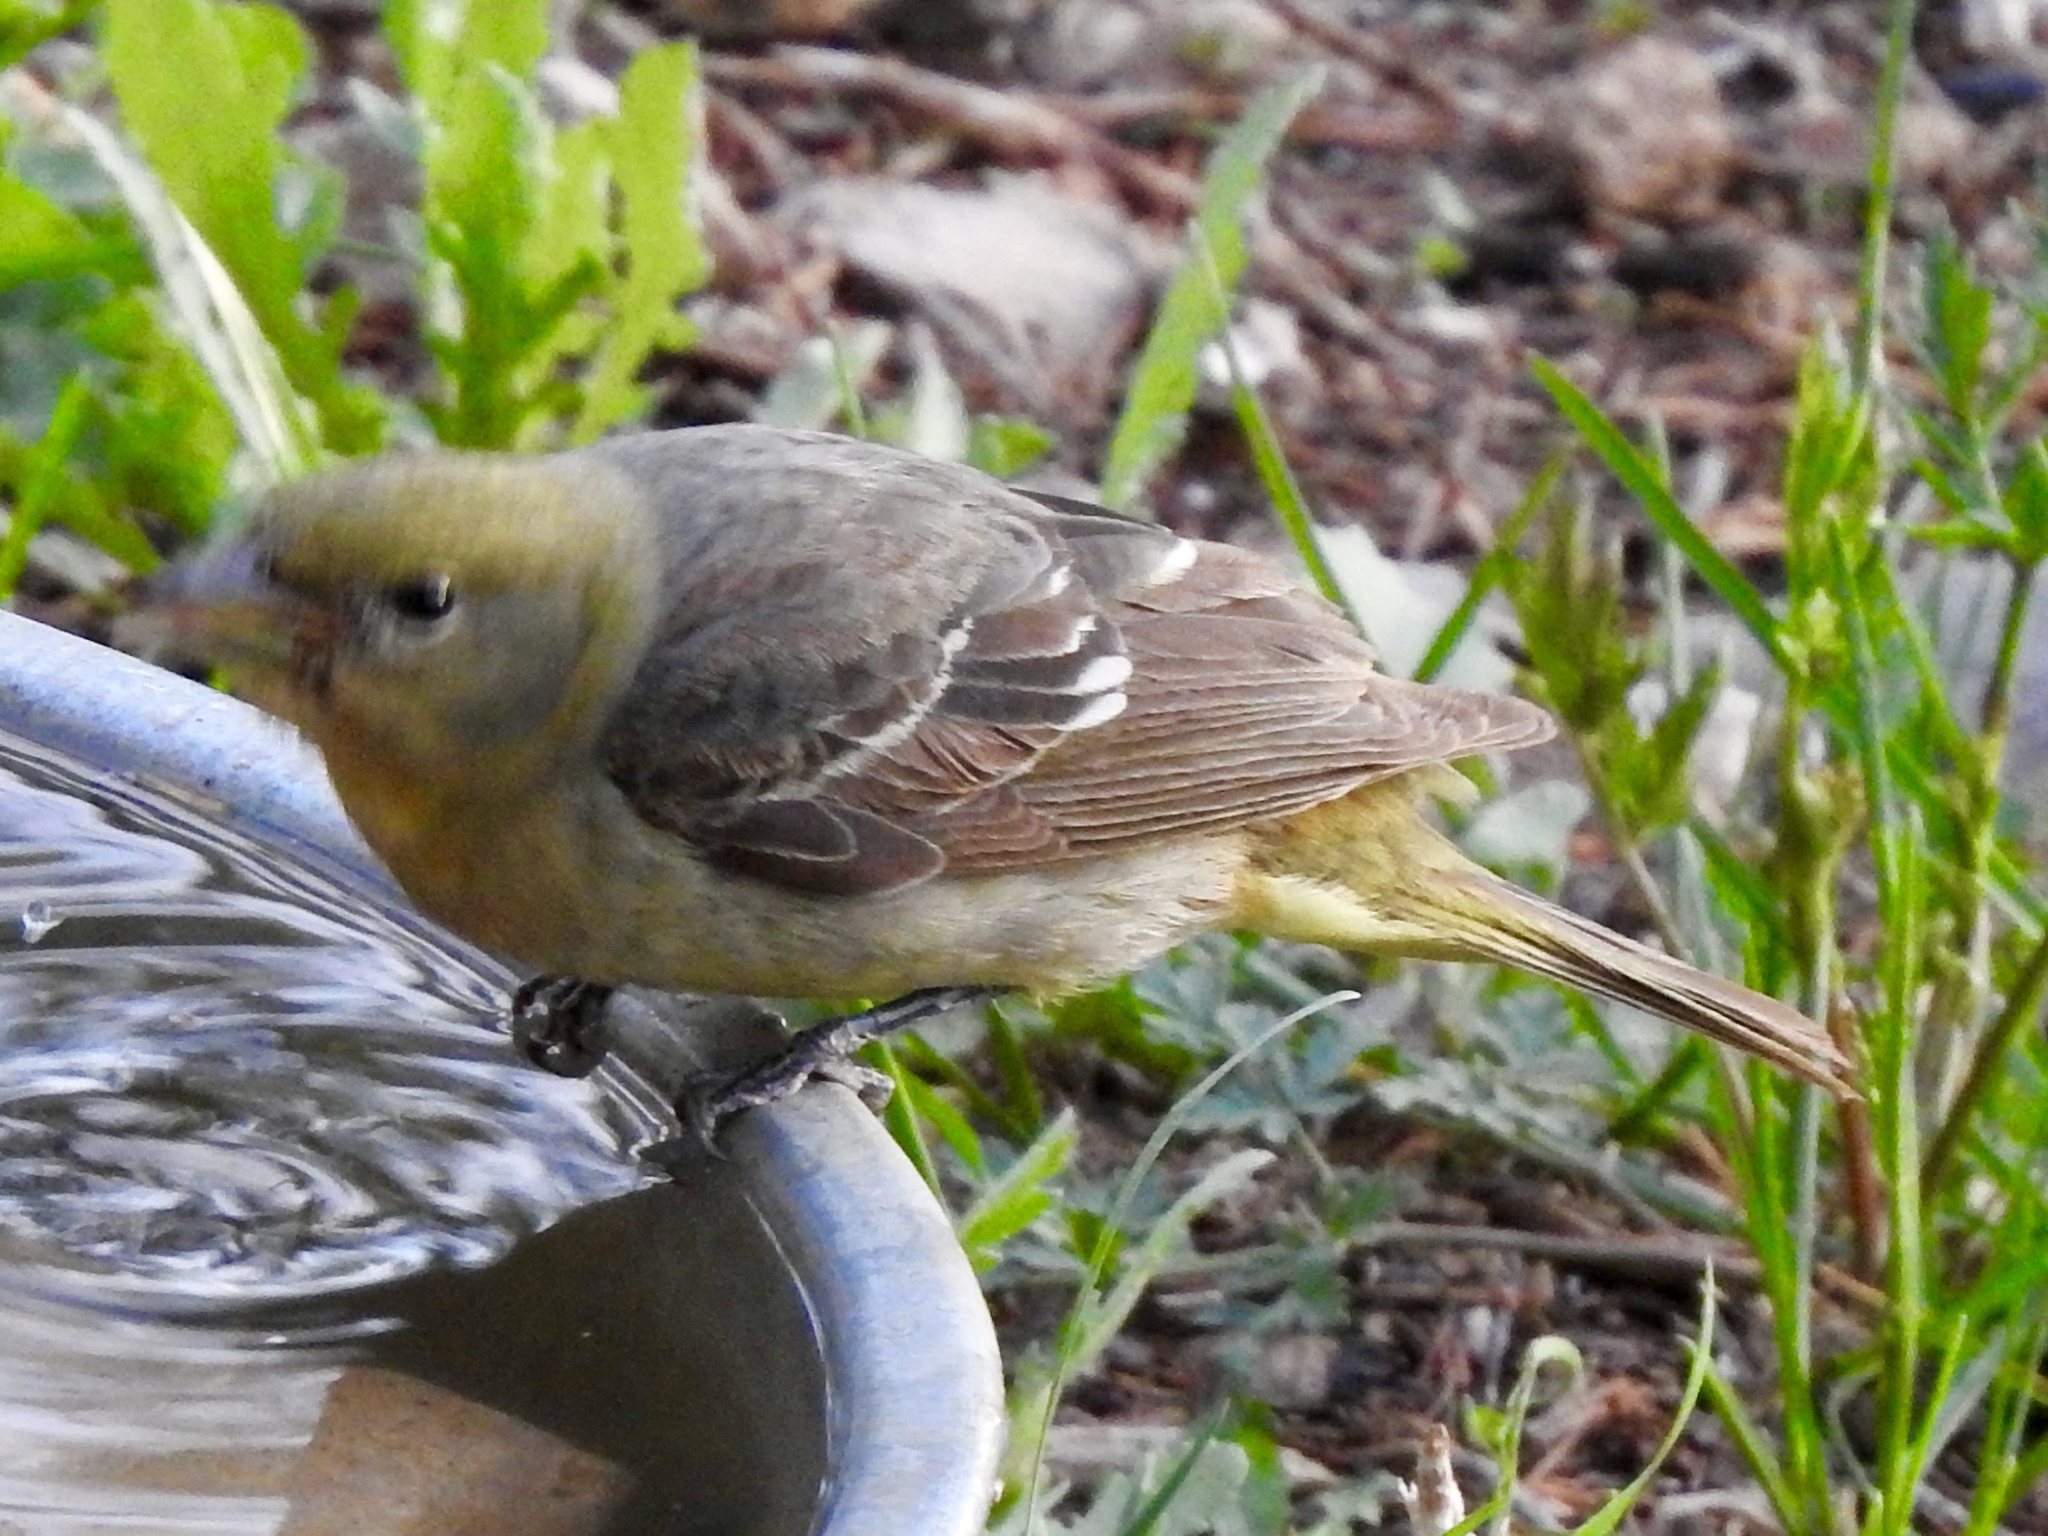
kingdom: Animalia
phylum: Chordata
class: Aves
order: Passeriformes
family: Icteridae
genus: Icterus
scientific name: Icterus bullockii
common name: Bullock's oriole
